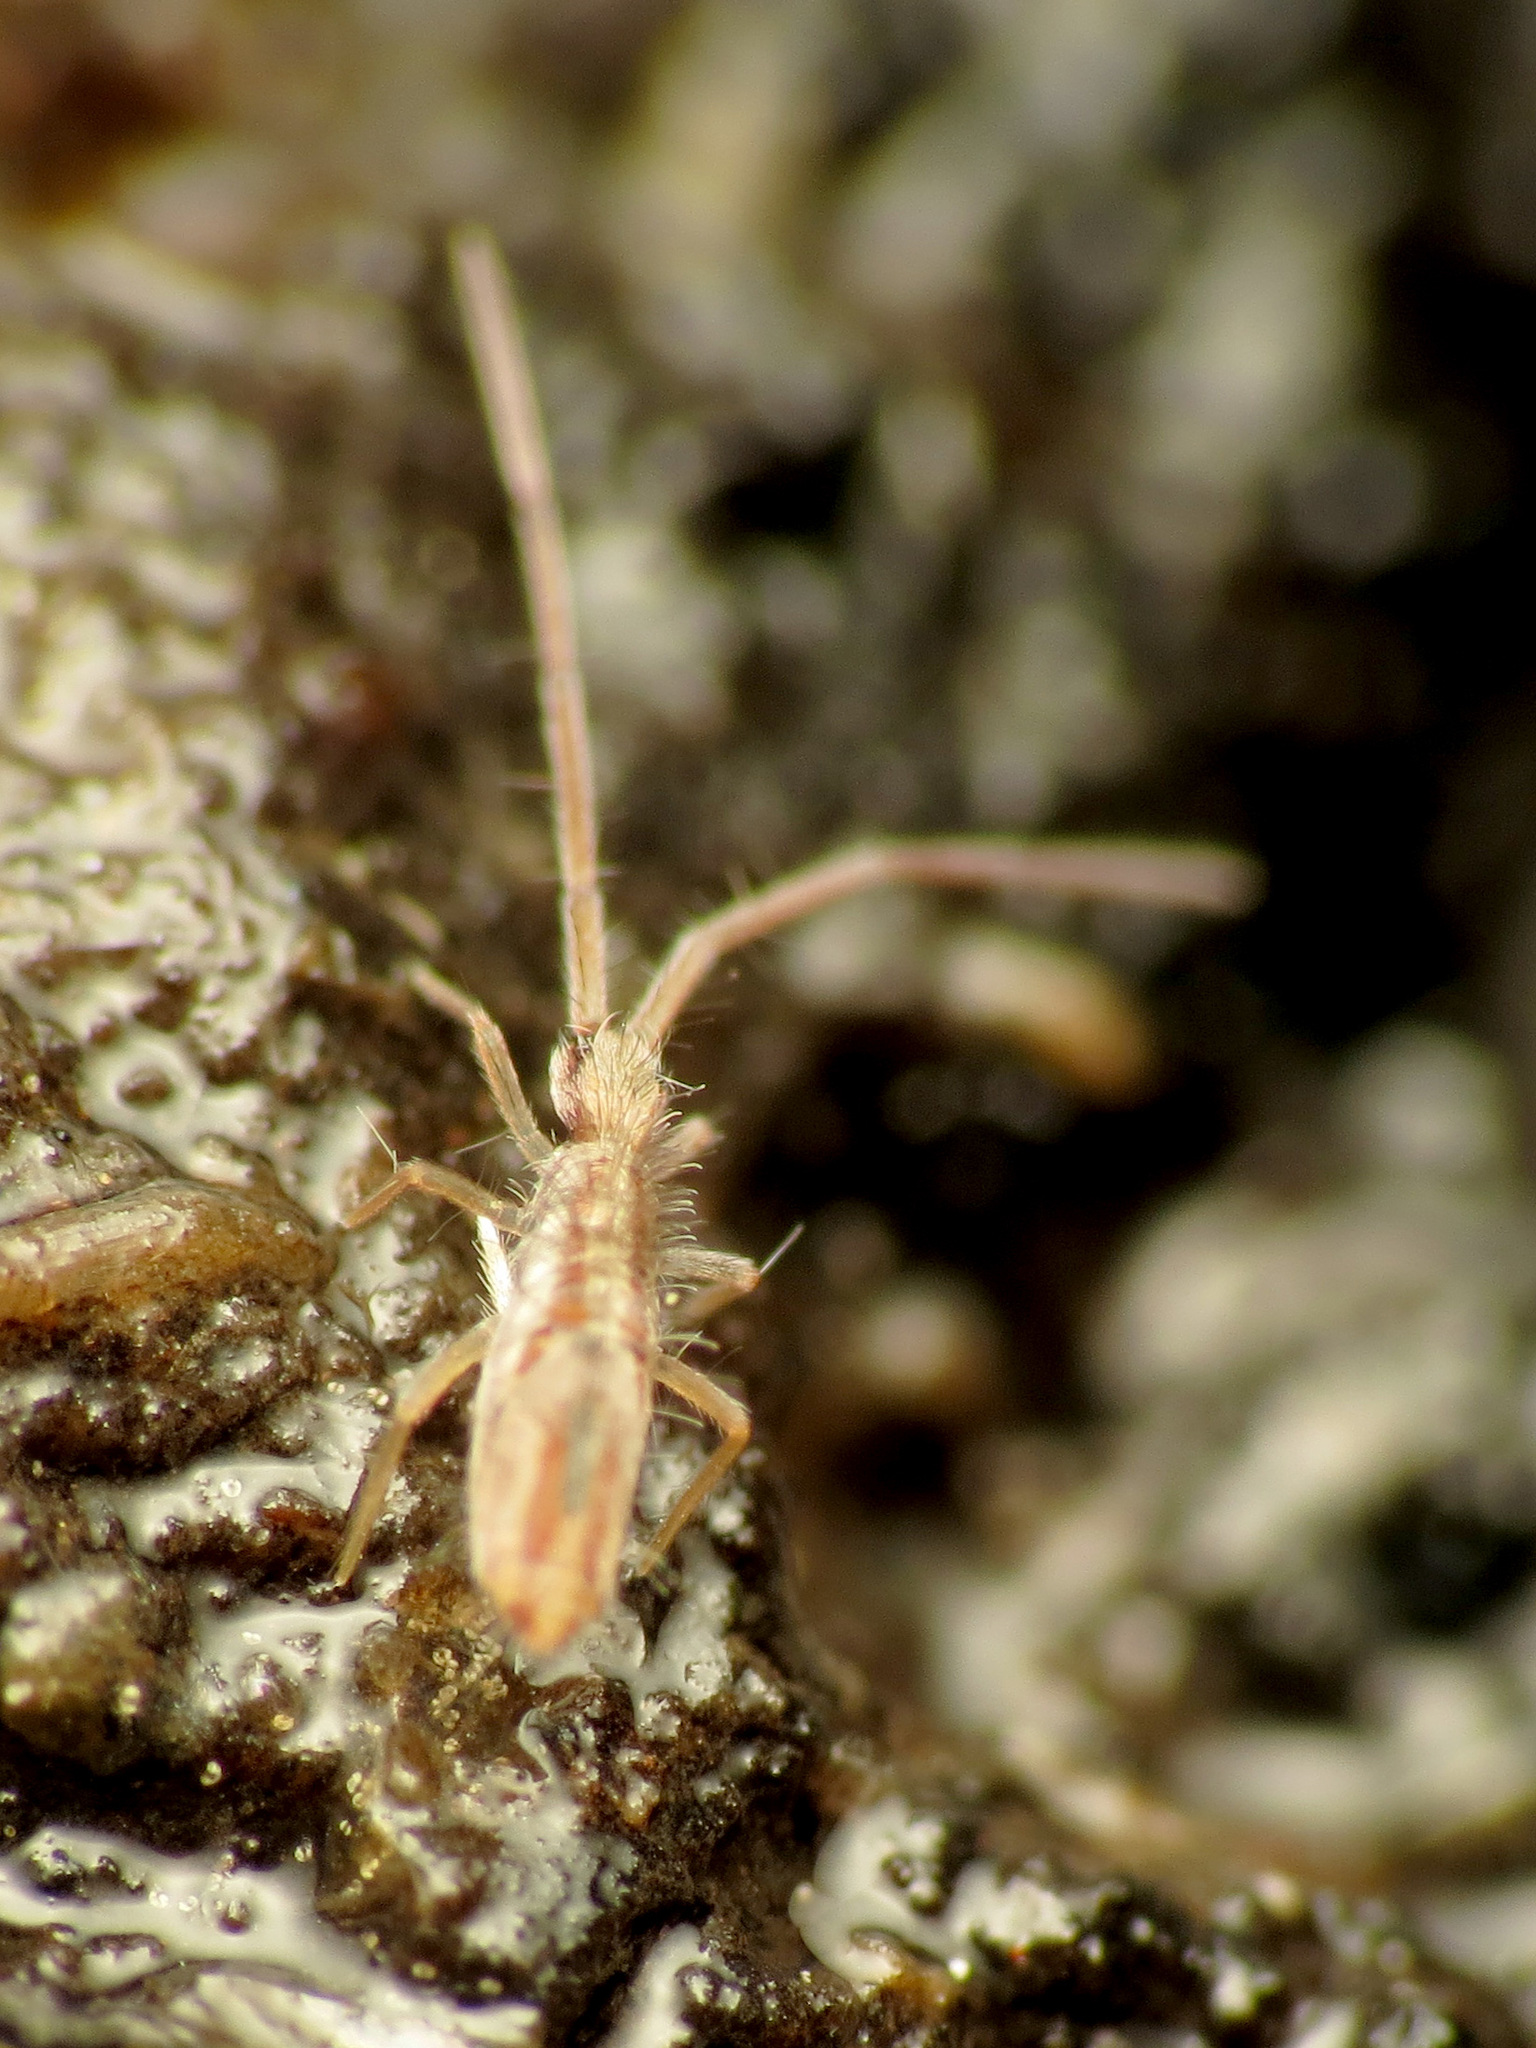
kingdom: Animalia
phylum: Arthropoda
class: Collembola
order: Entomobryomorpha
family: Paronellidae
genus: Salina
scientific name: Salina mulcahyae
